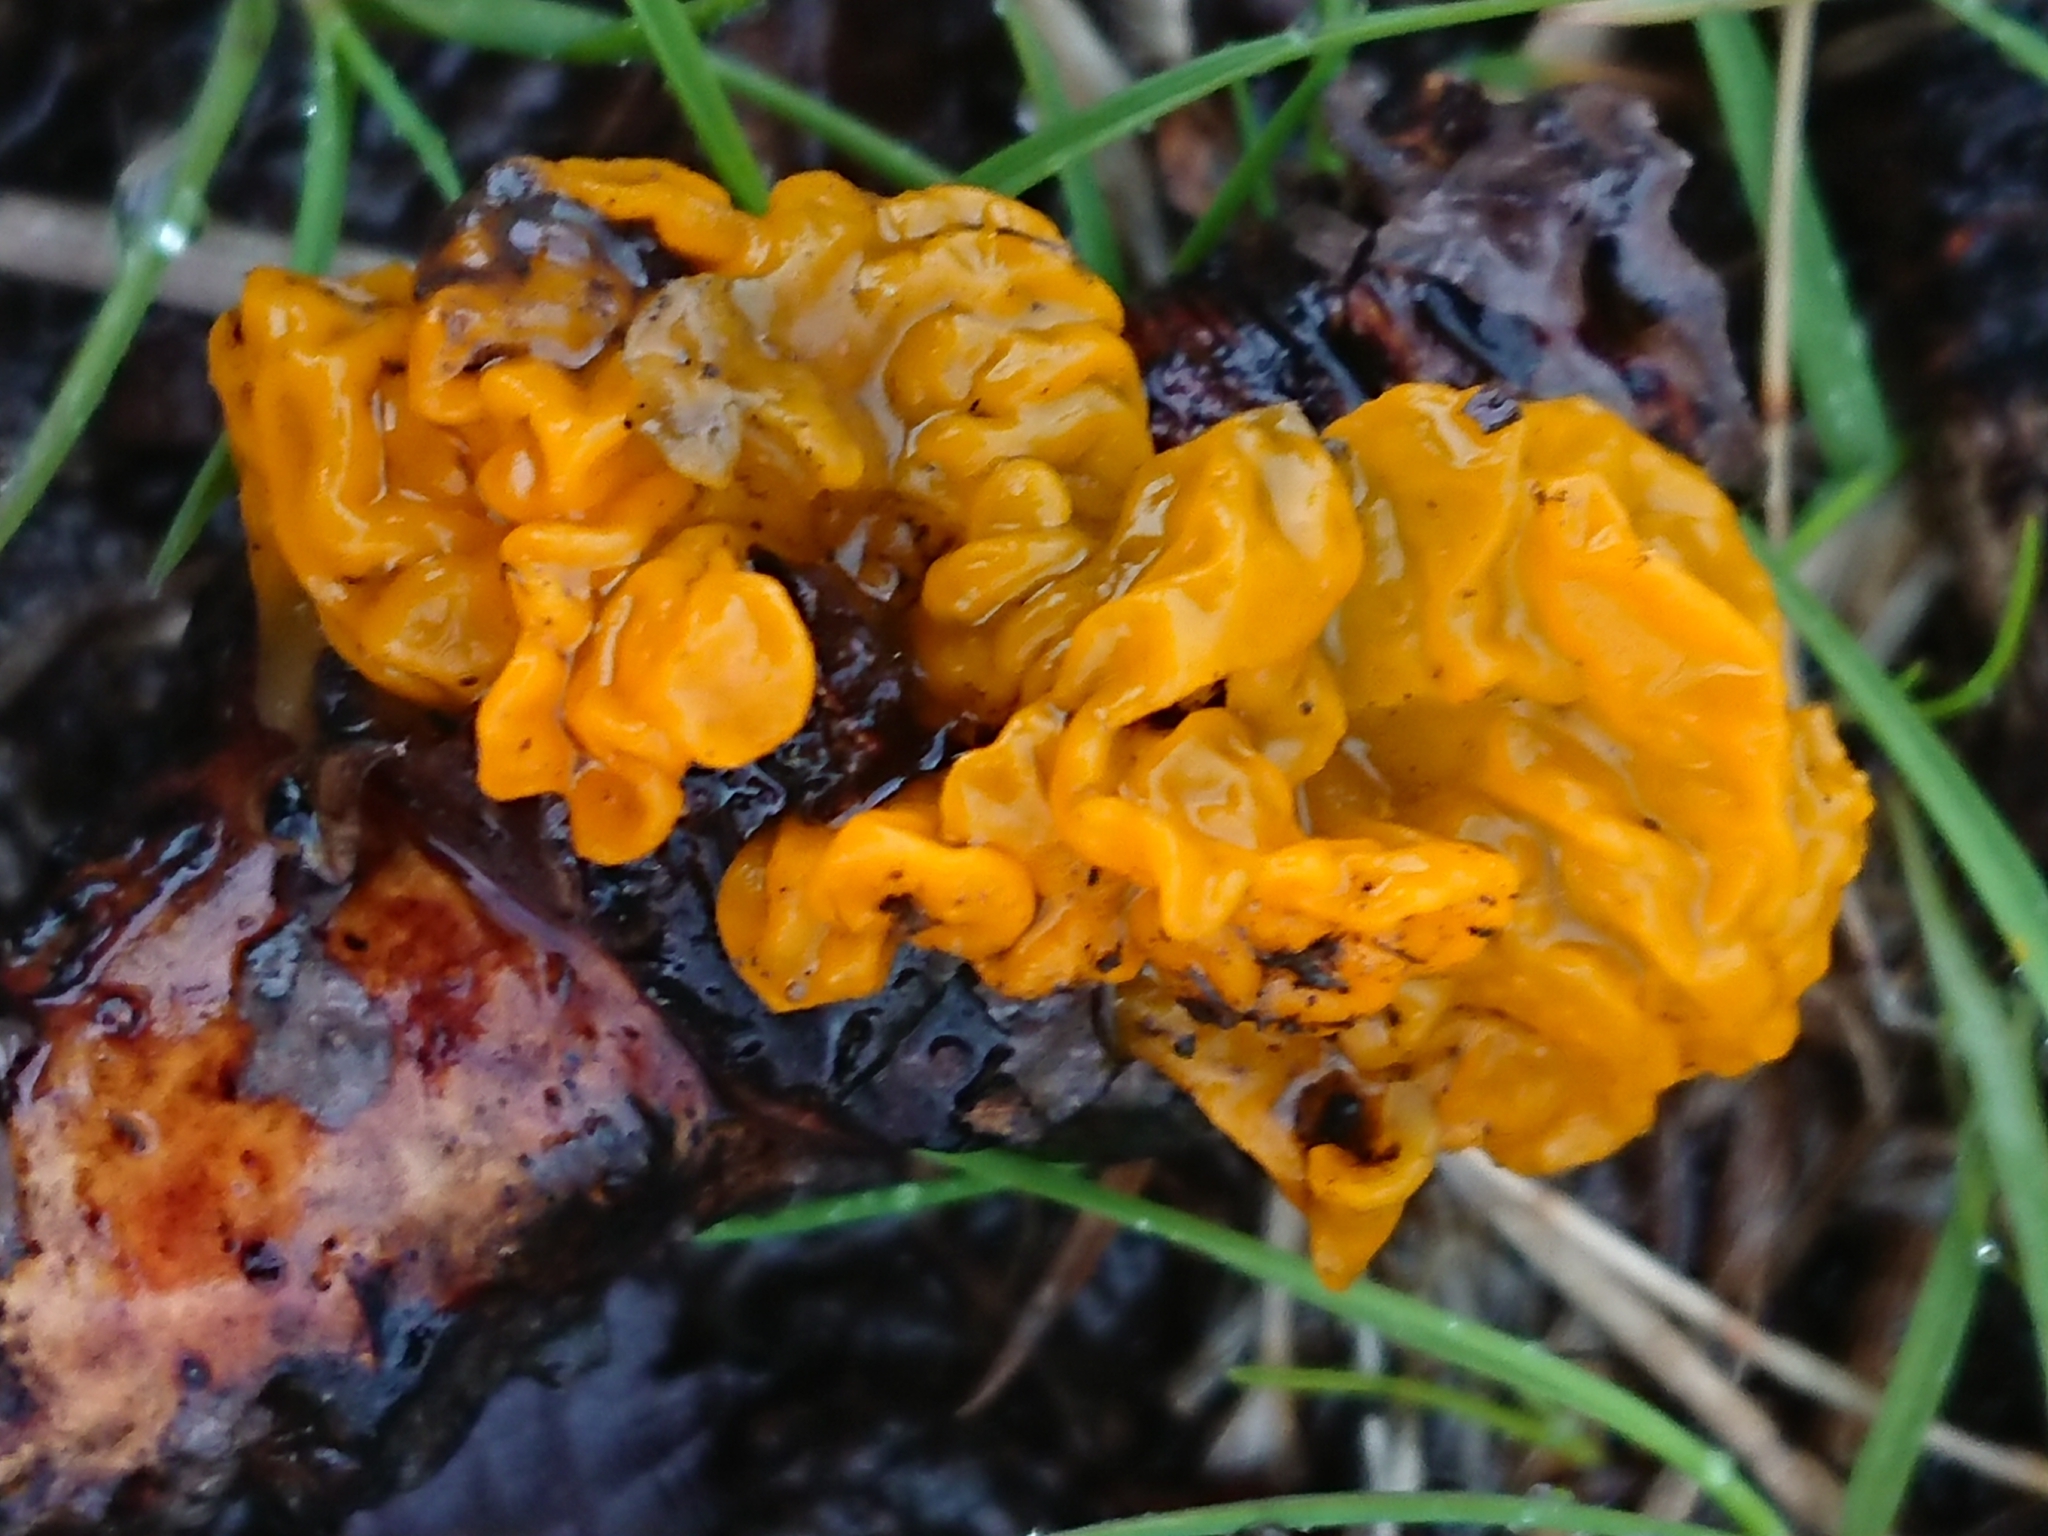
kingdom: Fungi
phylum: Basidiomycota
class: Tremellomycetes
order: Tremellales
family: Tremellaceae
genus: Tremella
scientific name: Tremella mesenterica
